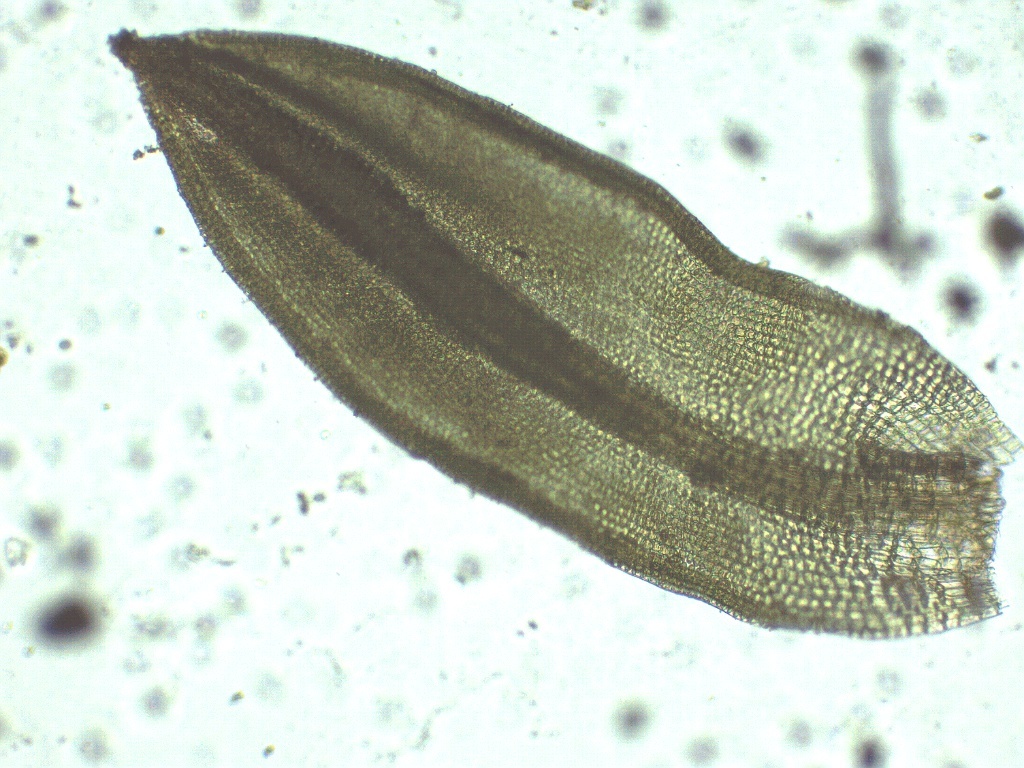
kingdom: Plantae
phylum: Bryophyta
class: Bryopsida
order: Pottiales
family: Pottiaceae
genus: Tortula
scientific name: Tortula atrovirens
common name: Rib-leaf moss
